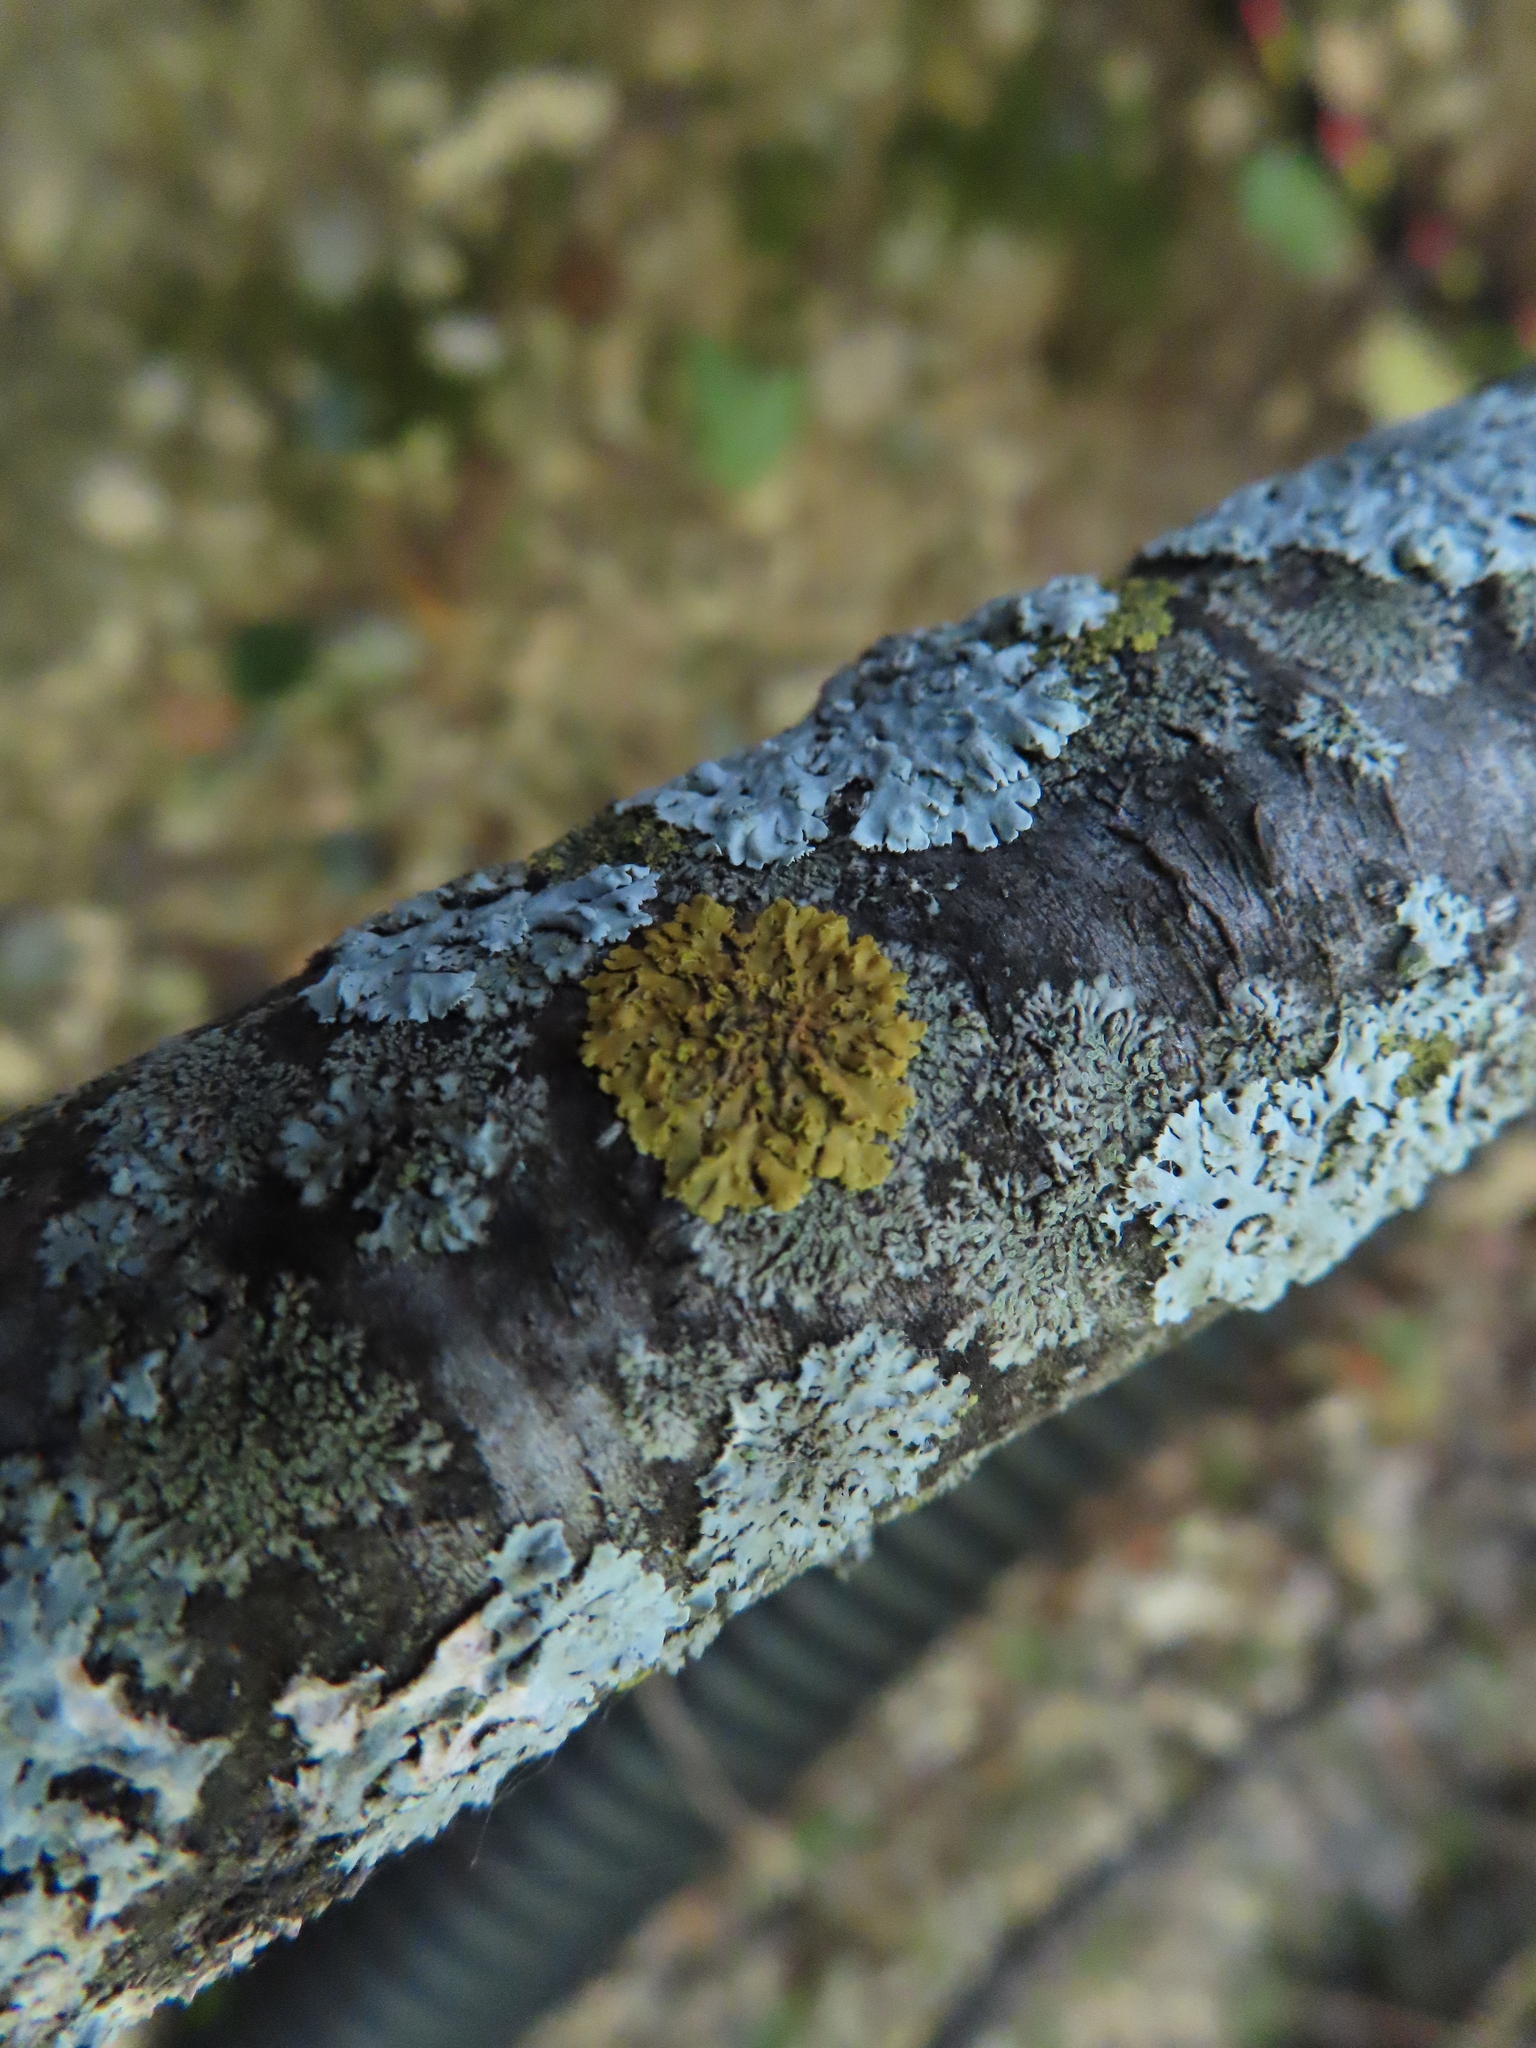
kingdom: Fungi
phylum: Ascomycota
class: Lecanoromycetes
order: Teloschistales
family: Teloschistaceae
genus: Oxneria
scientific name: Oxneria fallax
